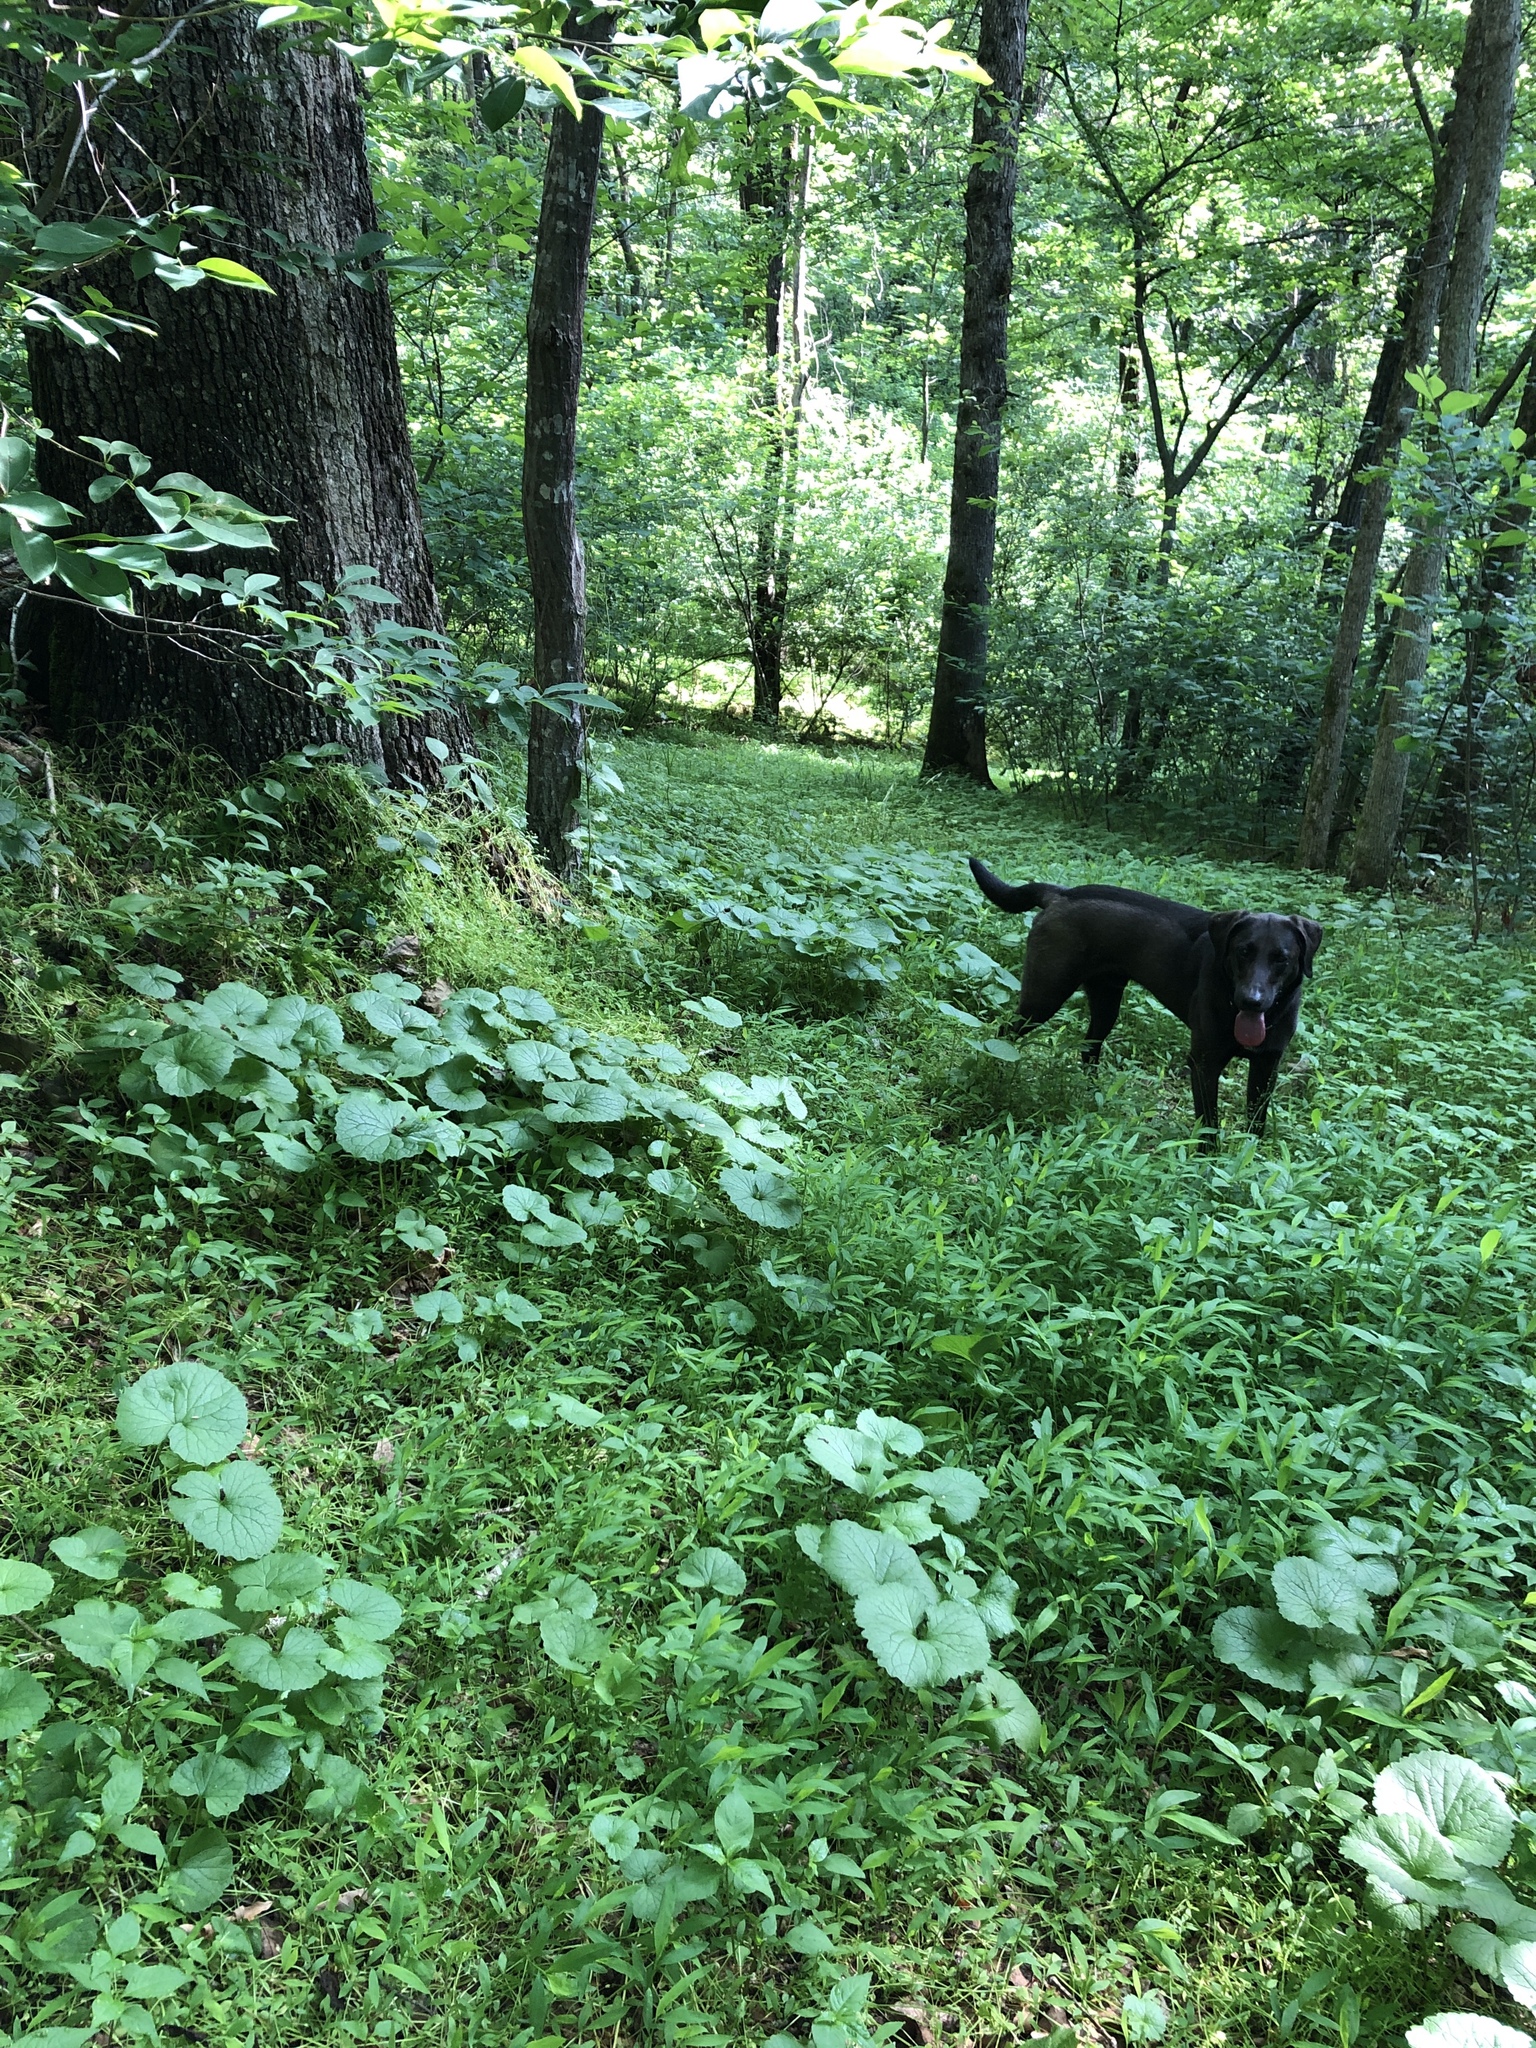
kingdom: Plantae
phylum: Tracheophyta
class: Magnoliopsida
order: Brassicales
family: Brassicaceae
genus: Alliaria
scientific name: Alliaria petiolata
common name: Garlic mustard
